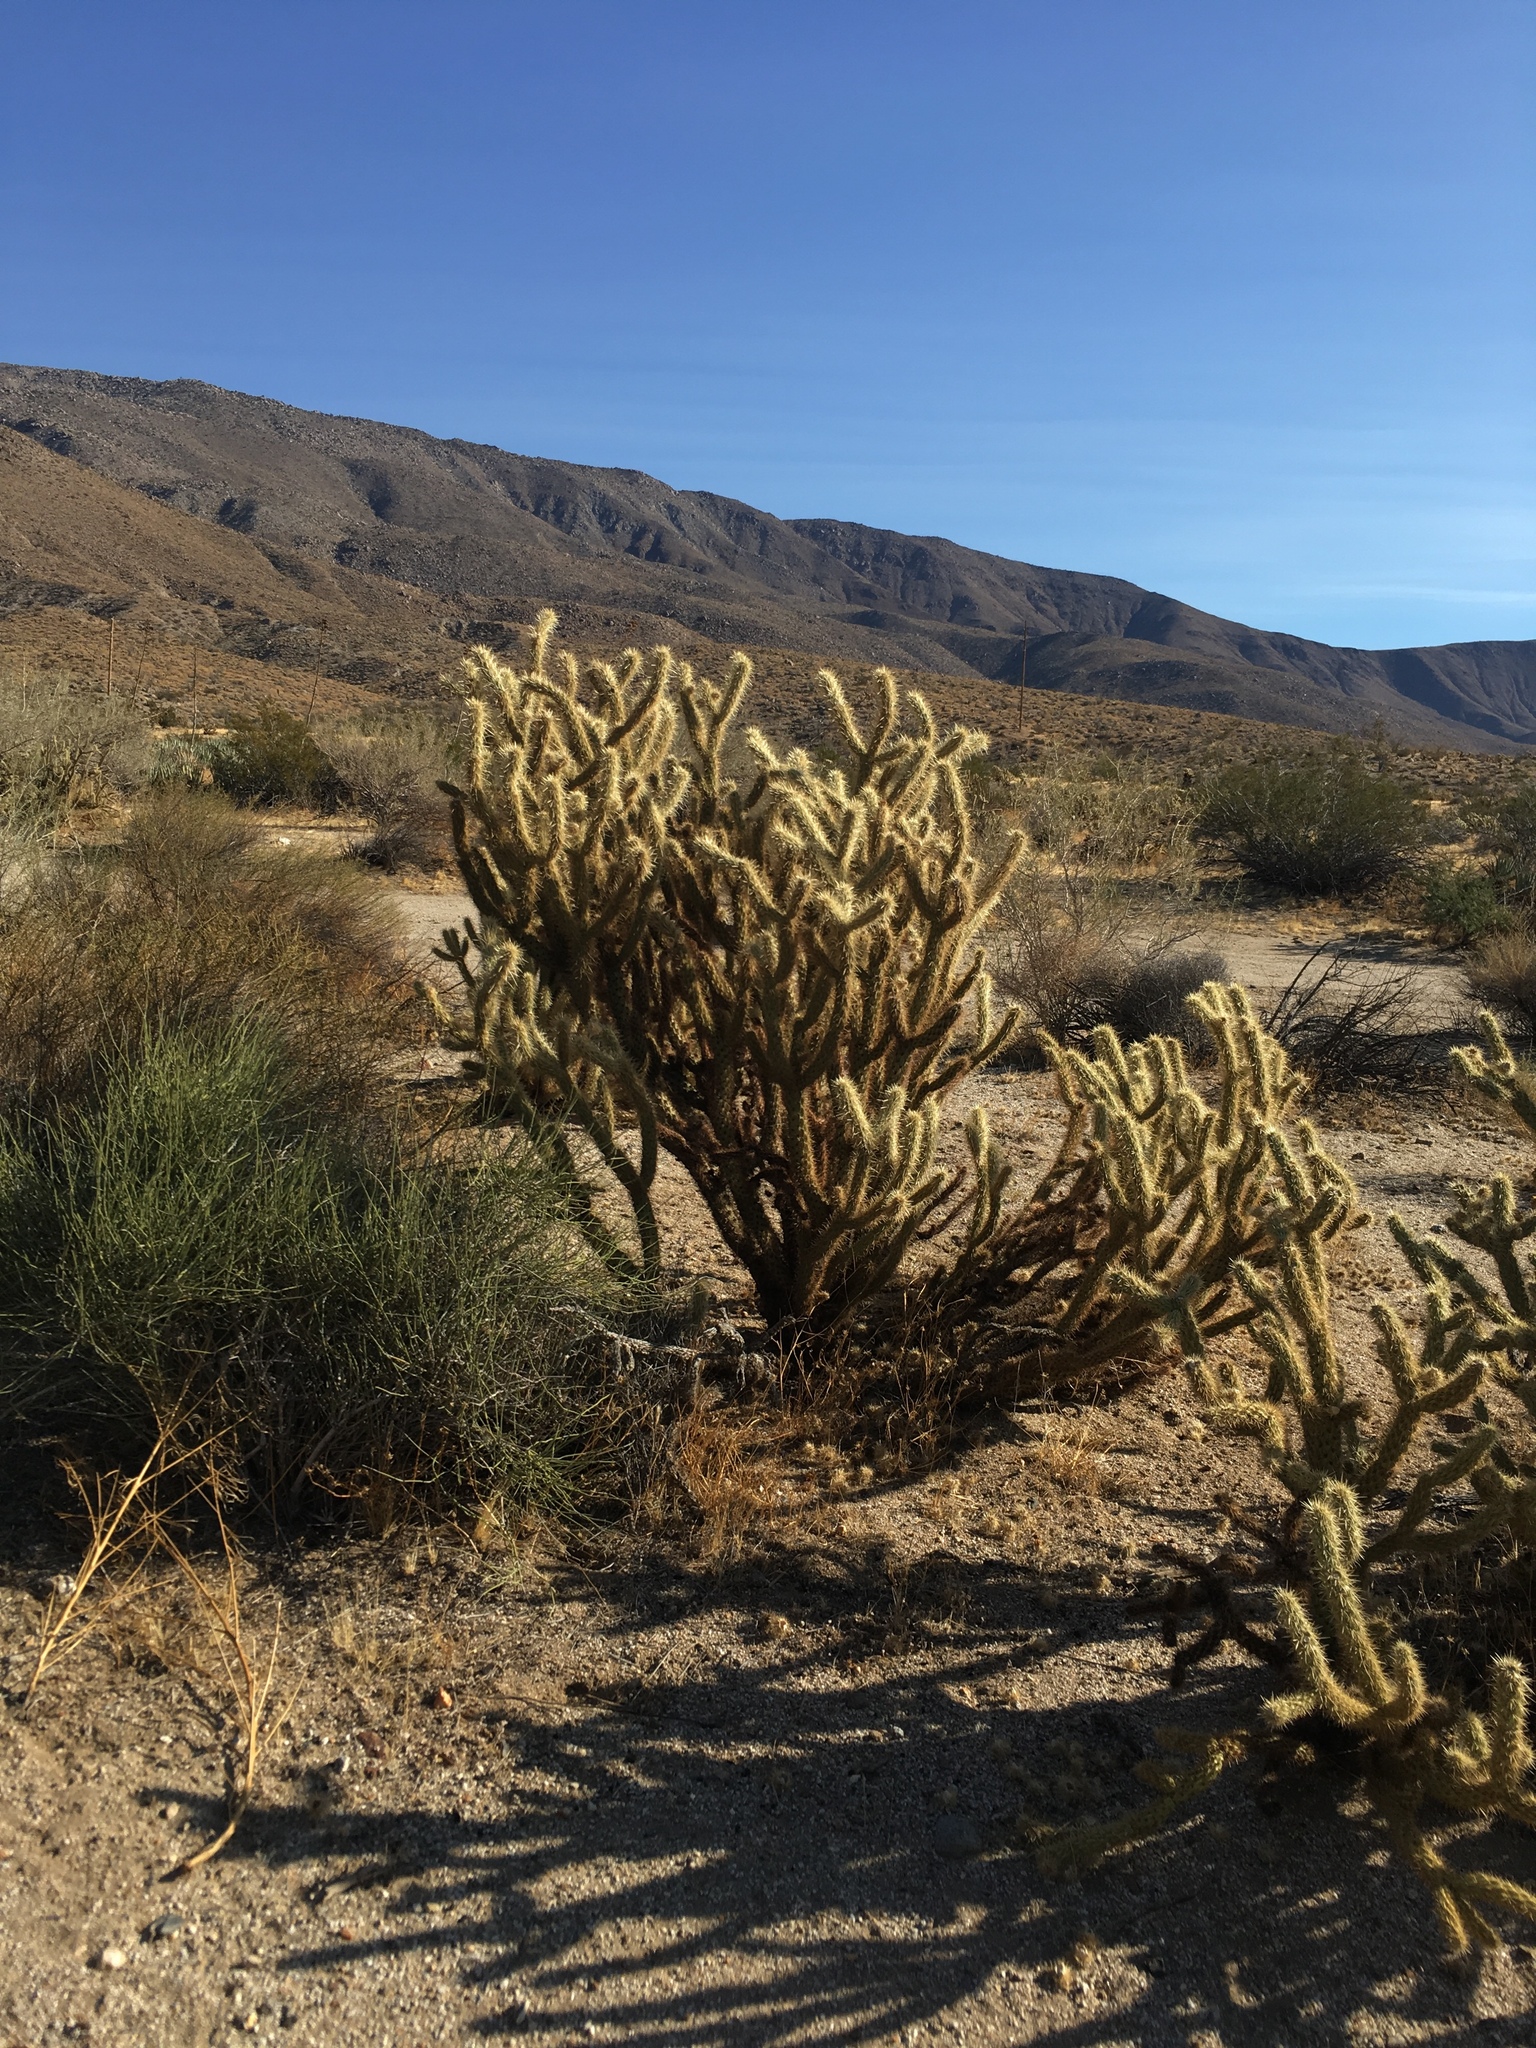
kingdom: Plantae
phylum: Tracheophyta
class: Magnoliopsida
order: Caryophyllales
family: Cactaceae
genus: Cylindropuntia
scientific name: Cylindropuntia ganderi
